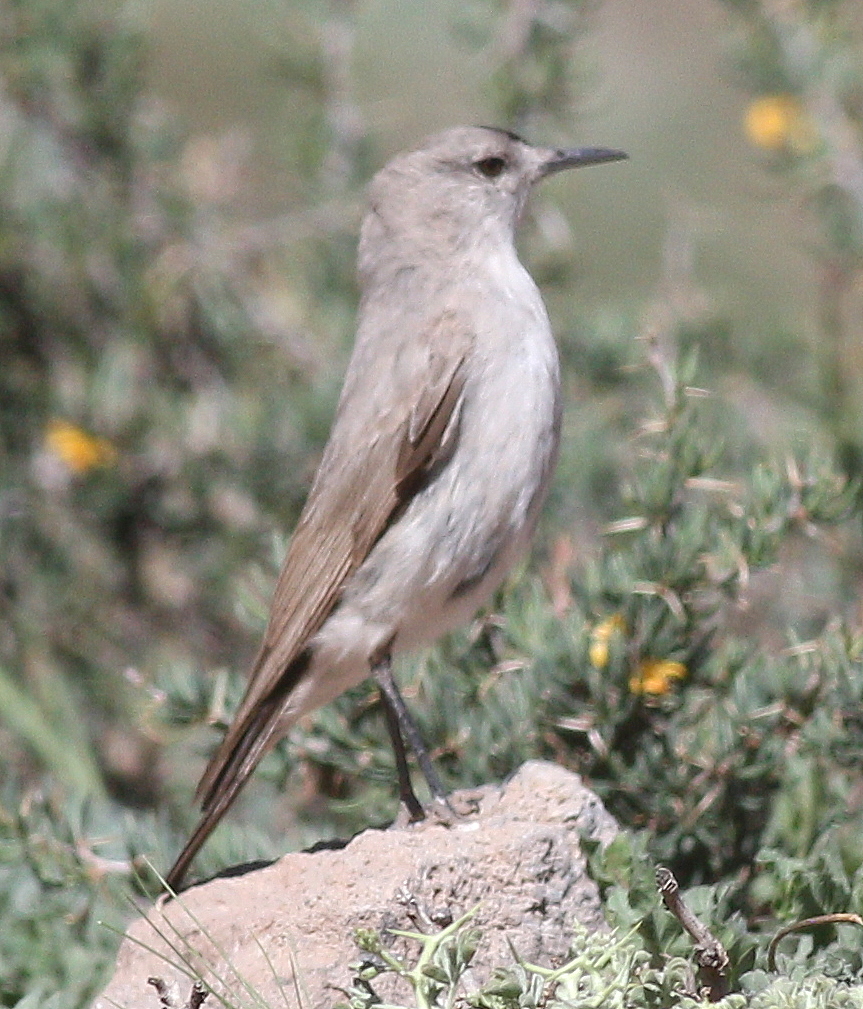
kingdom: Animalia
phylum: Chordata
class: Aves
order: Passeriformes
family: Tyrannidae
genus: Muscisaxicola
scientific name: Muscisaxicola frontalis
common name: Black-fronted ground tyrant
